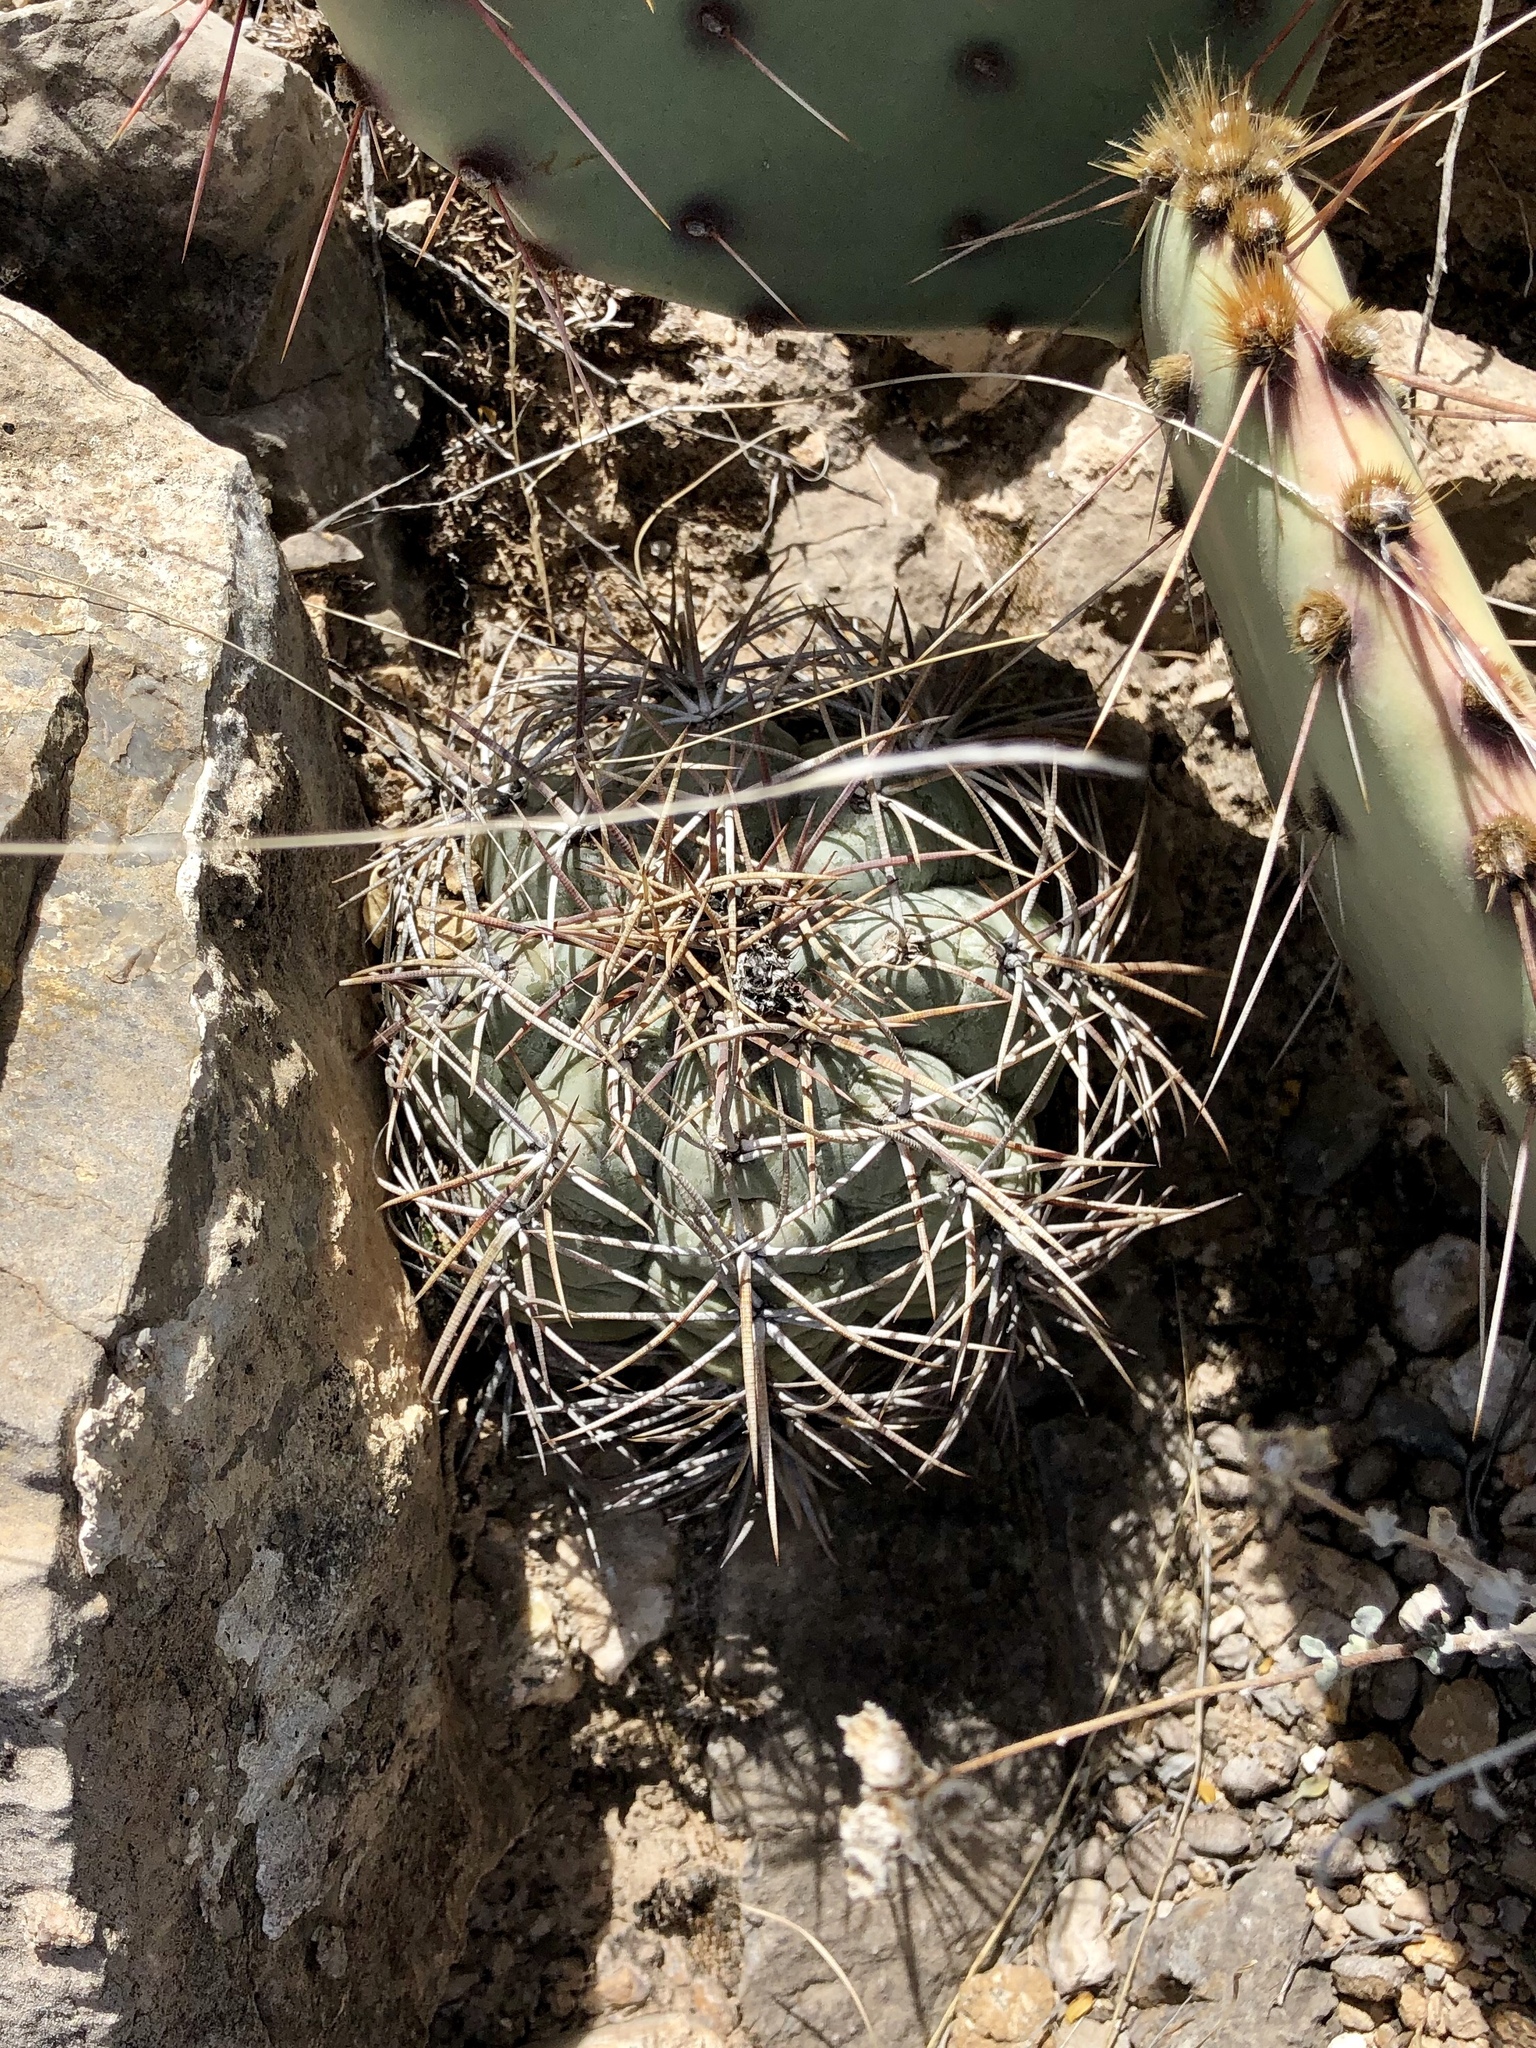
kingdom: Plantae
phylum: Tracheophyta
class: Magnoliopsida
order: Caryophyllales
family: Cactaceae
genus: Echinocactus
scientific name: Echinocactus horizonthalonius
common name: Devilshead
